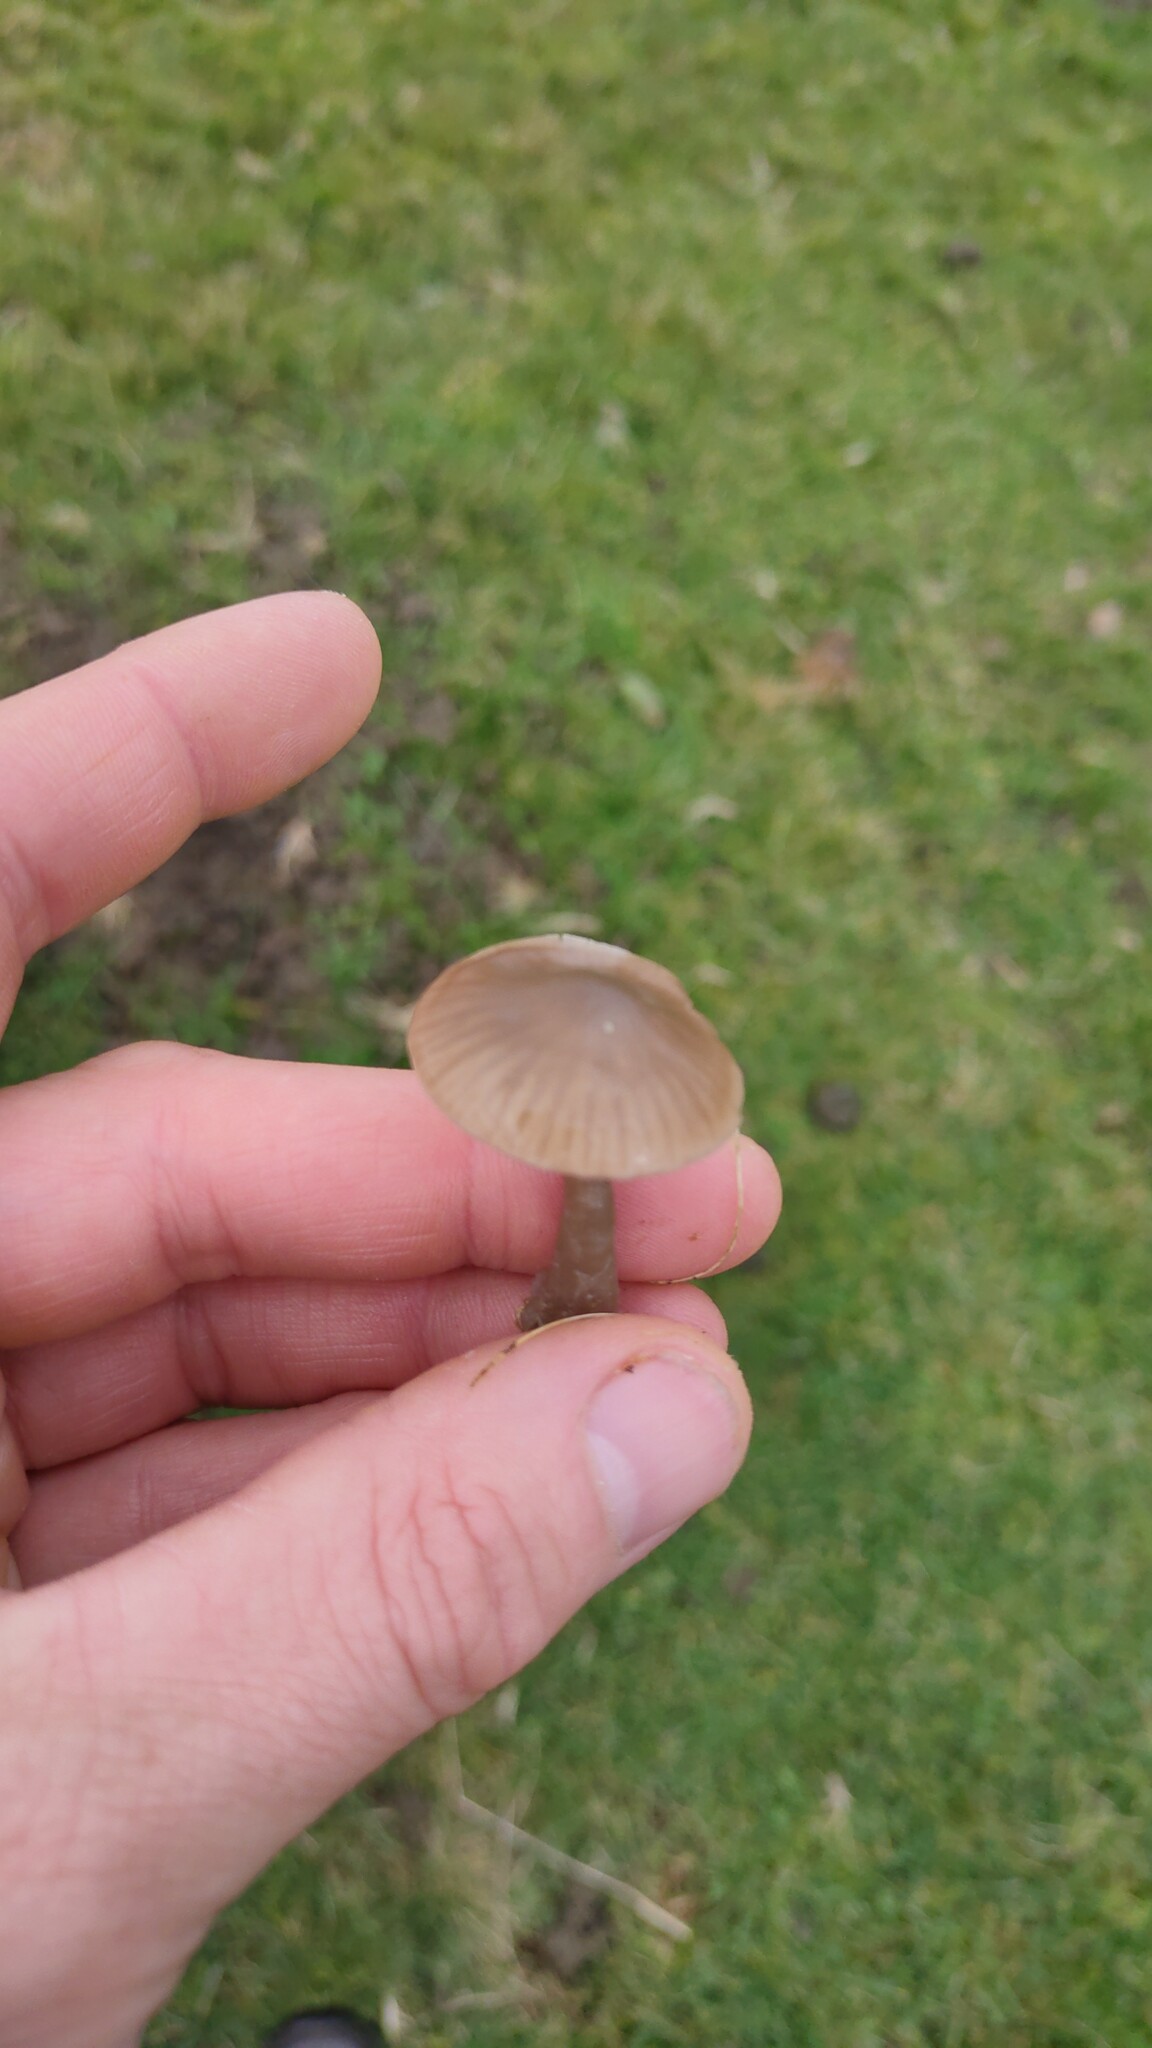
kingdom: Fungi
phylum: Basidiomycota
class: Agaricomycetes
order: Agaricales
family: Hygrophoraceae
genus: Gliophorus
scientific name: Gliophorus irrigatus
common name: Slimy waxcap
